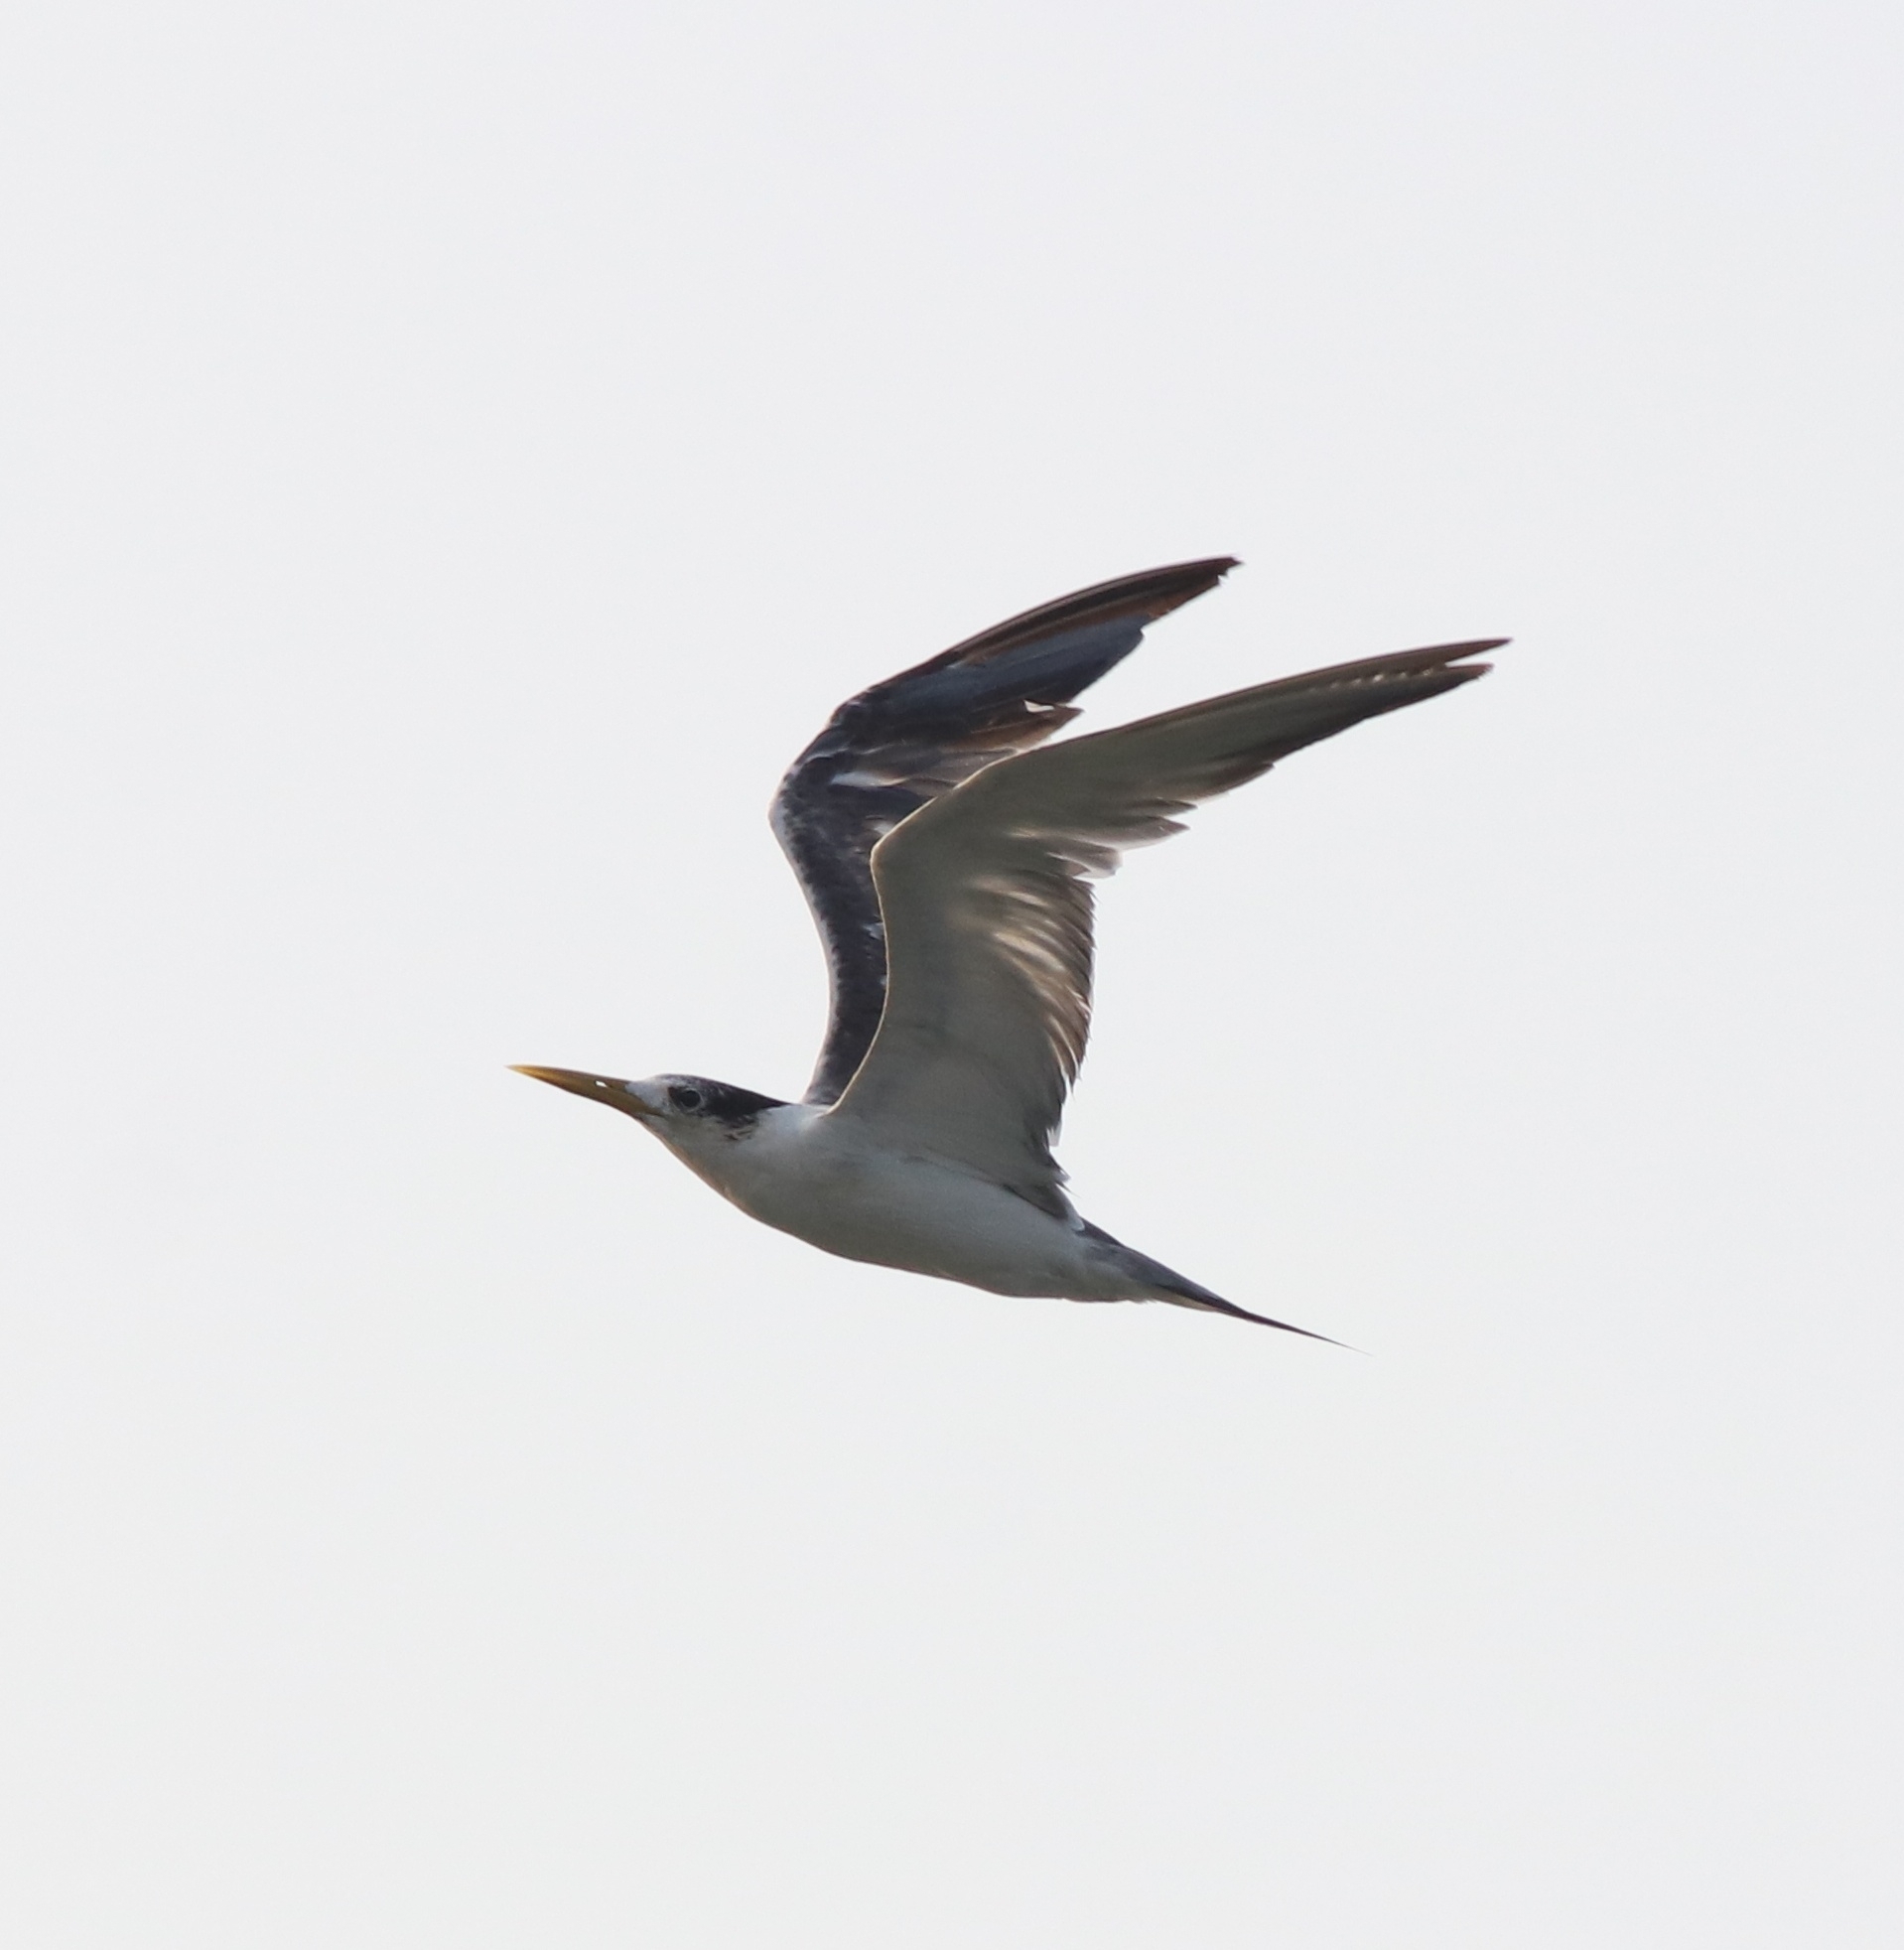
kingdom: Animalia
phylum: Chordata
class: Aves
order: Charadriiformes
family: Laridae
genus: Thalasseus
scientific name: Thalasseus bergii
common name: Greater crested tern
